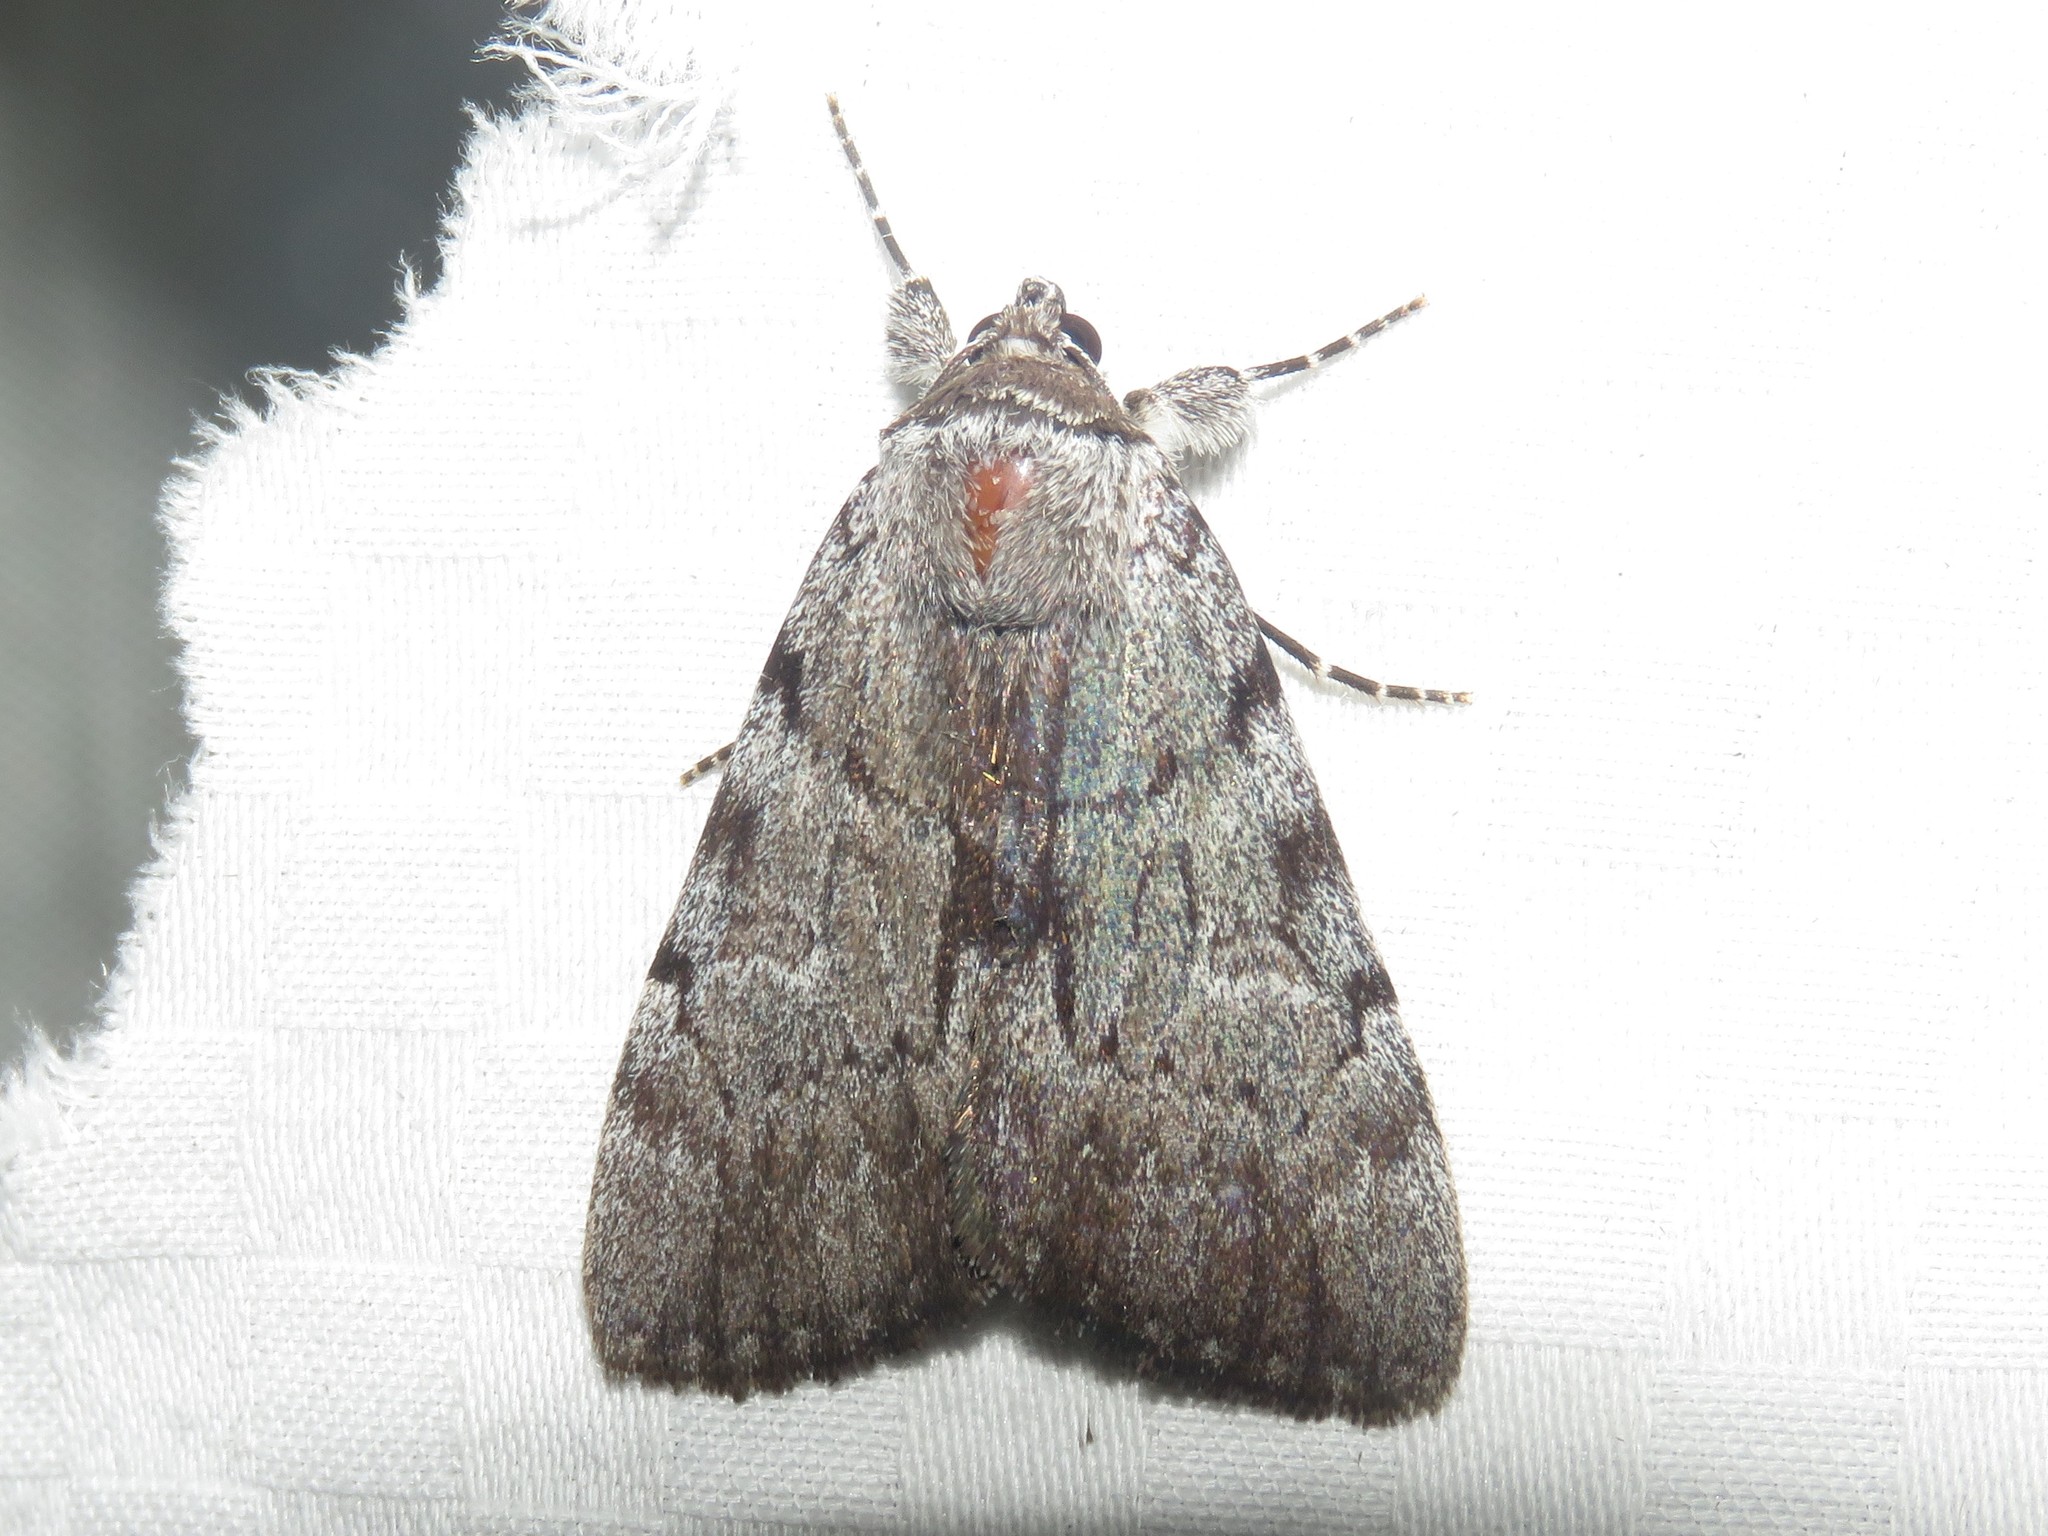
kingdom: Animalia
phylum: Arthropoda
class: Insecta
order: Lepidoptera
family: Erebidae
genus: Catocala
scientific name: Catocala sordida
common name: Sordid underwing
